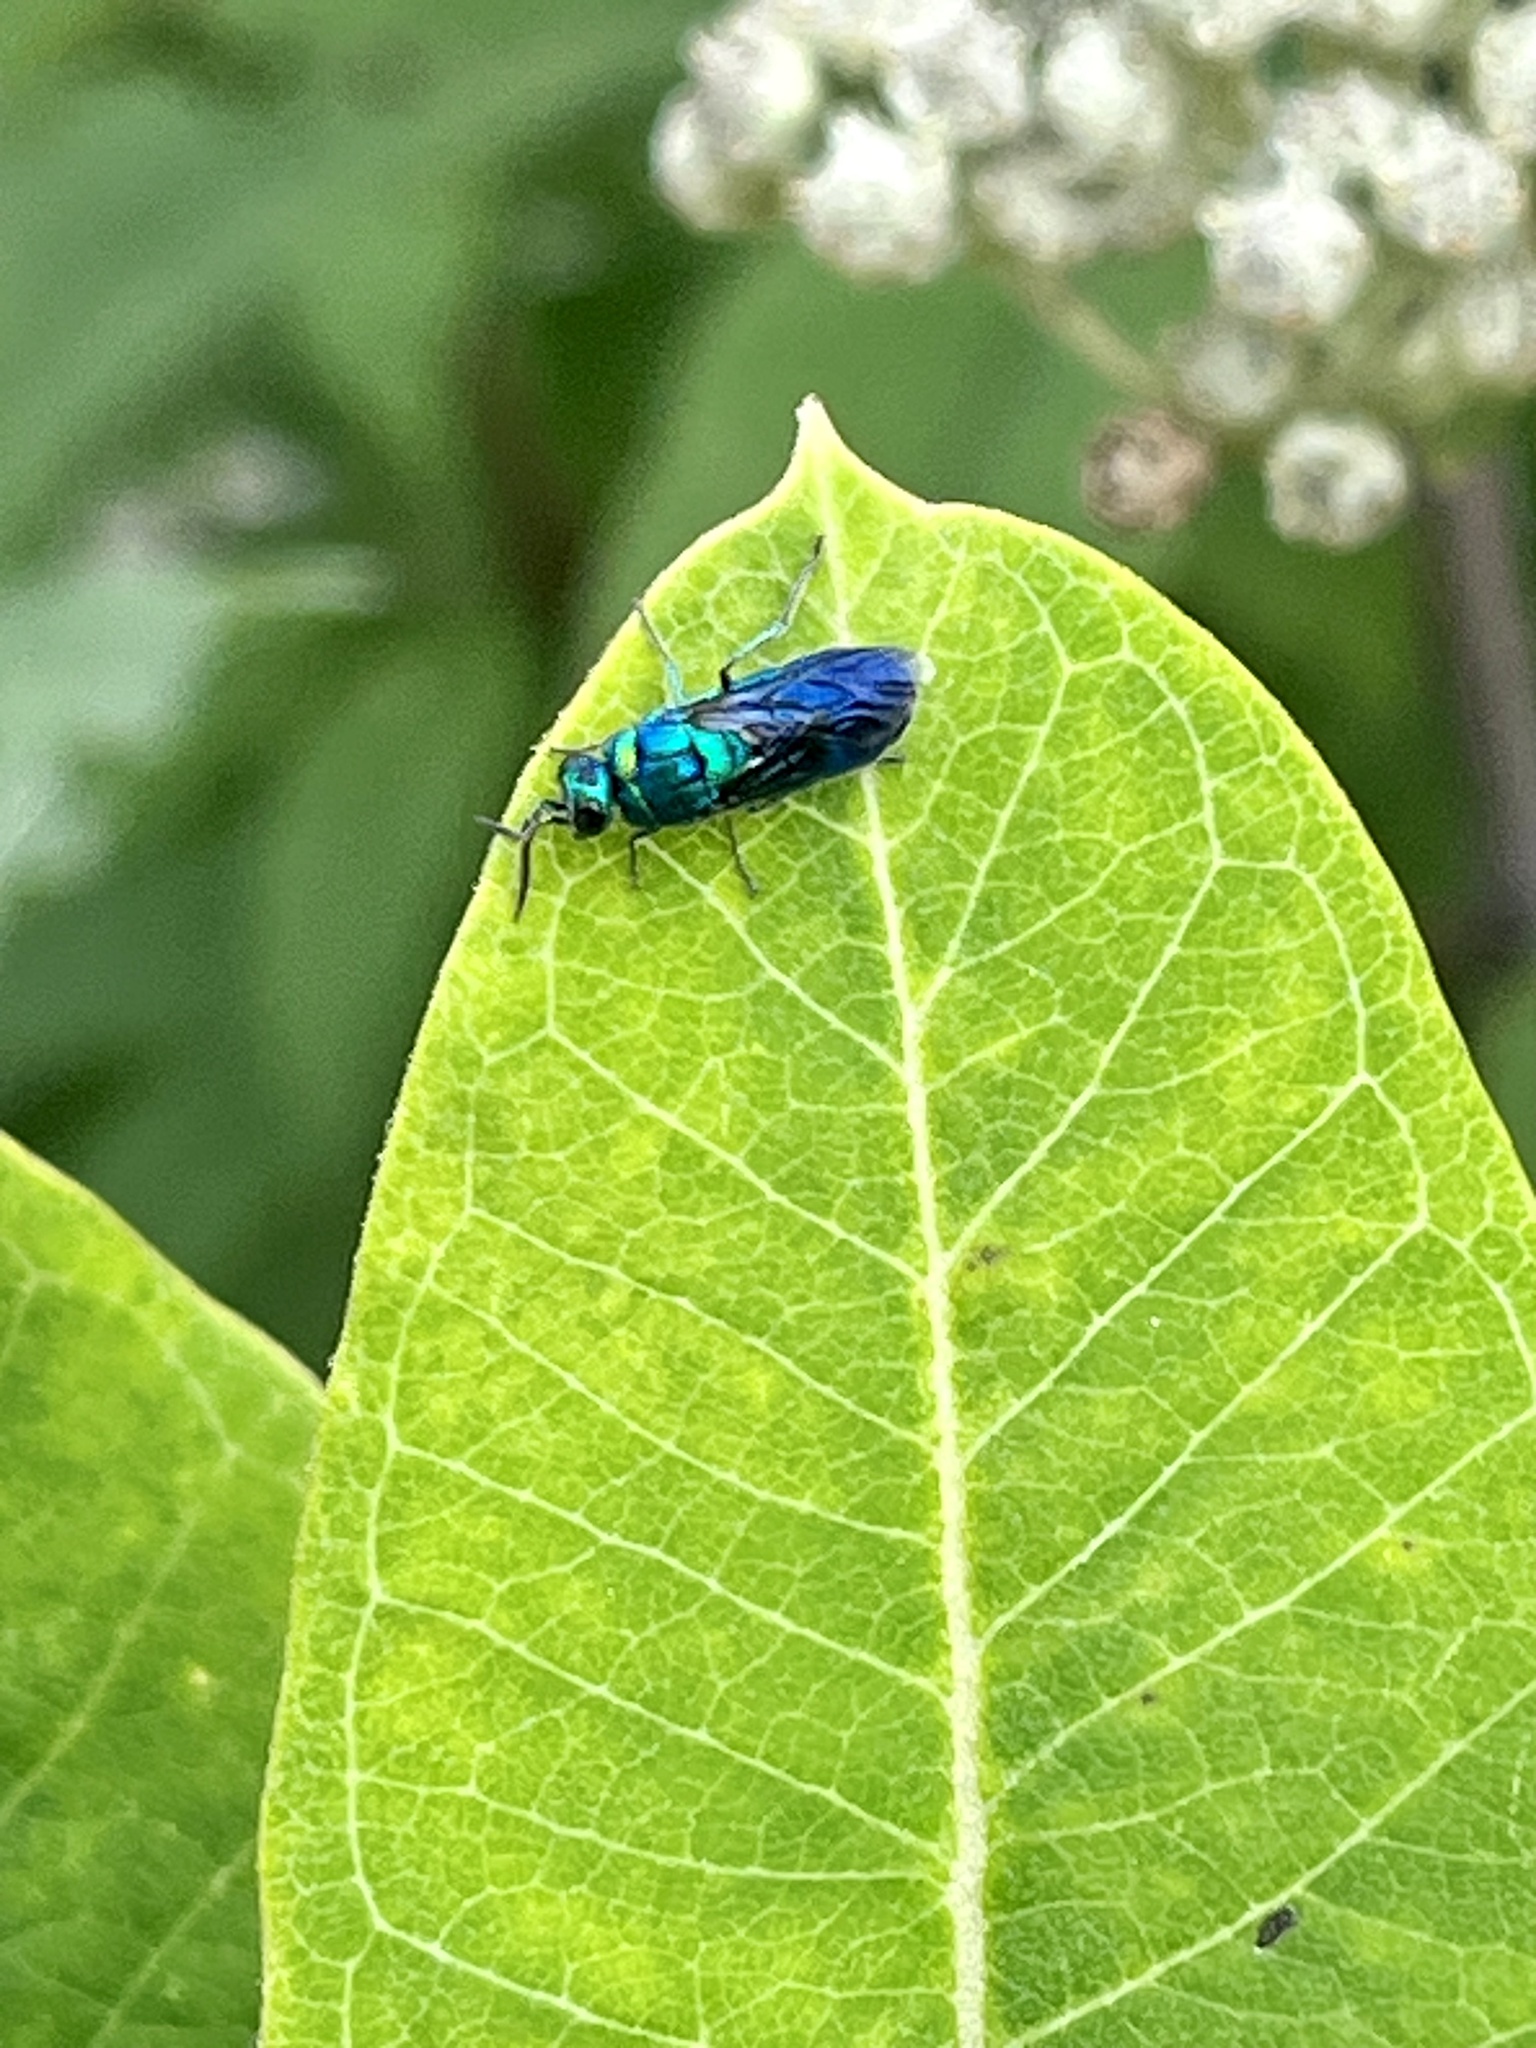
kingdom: Animalia
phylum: Arthropoda
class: Insecta
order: Hymenoptera
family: Chrysididae
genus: Chrysis
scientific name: Chrysis angolensis
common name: Cuckoo wasp
